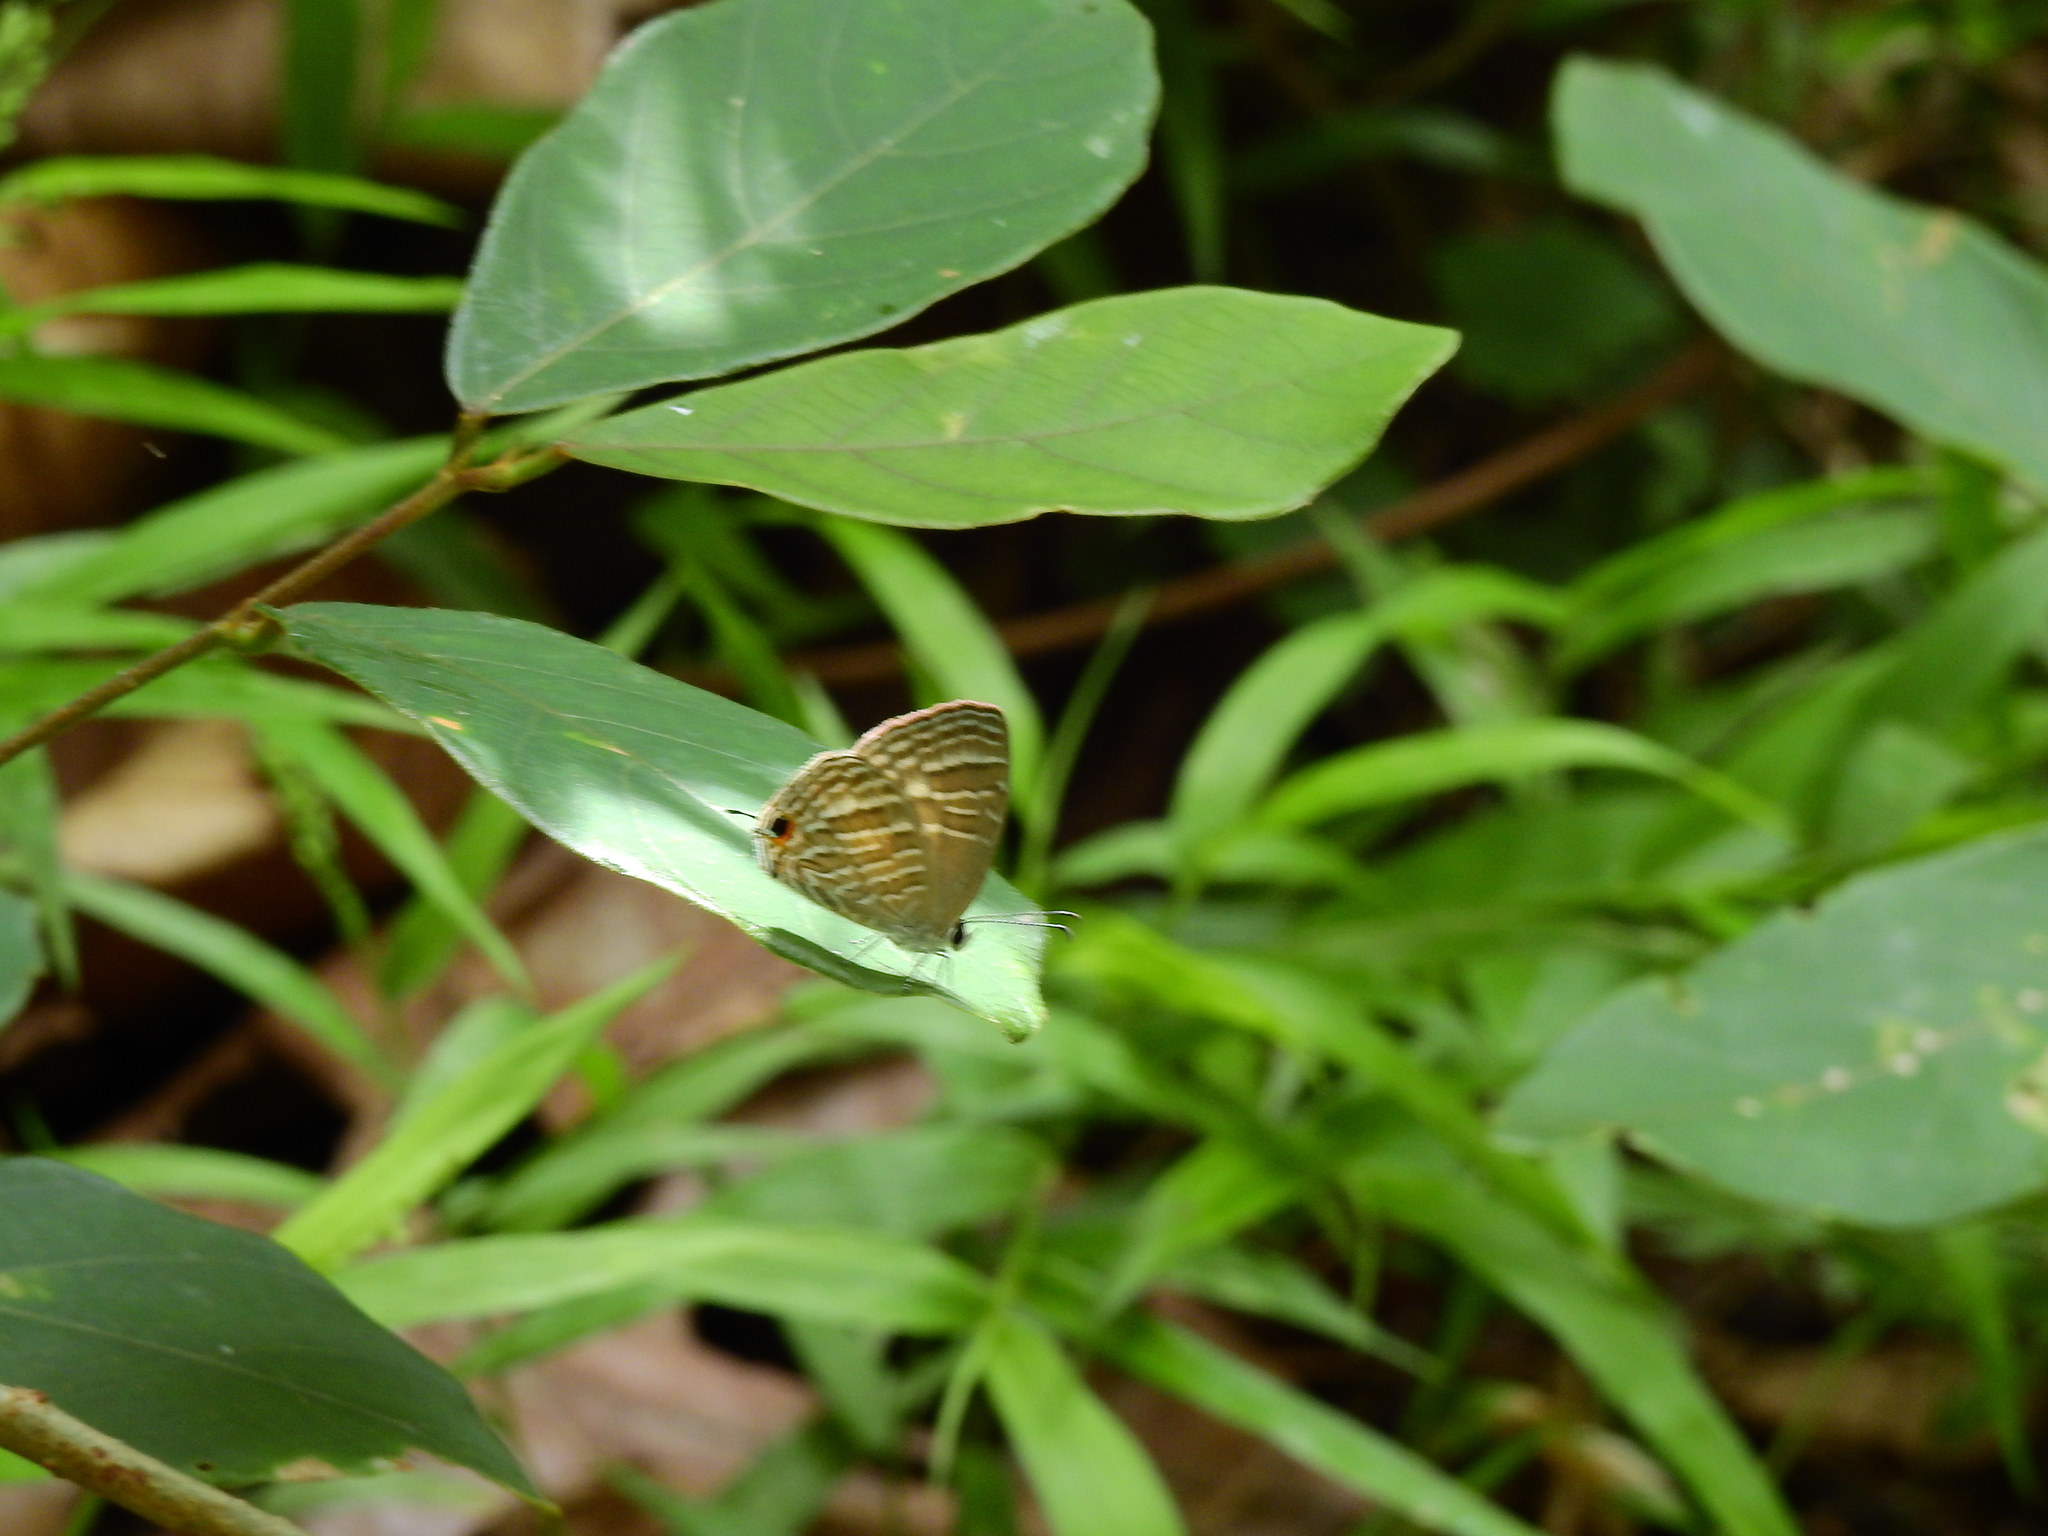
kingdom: Animalia
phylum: Arthropoda
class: Insecta
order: Lepidoptera
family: Lycaenidae
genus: Jamides
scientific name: Jamides celeno
